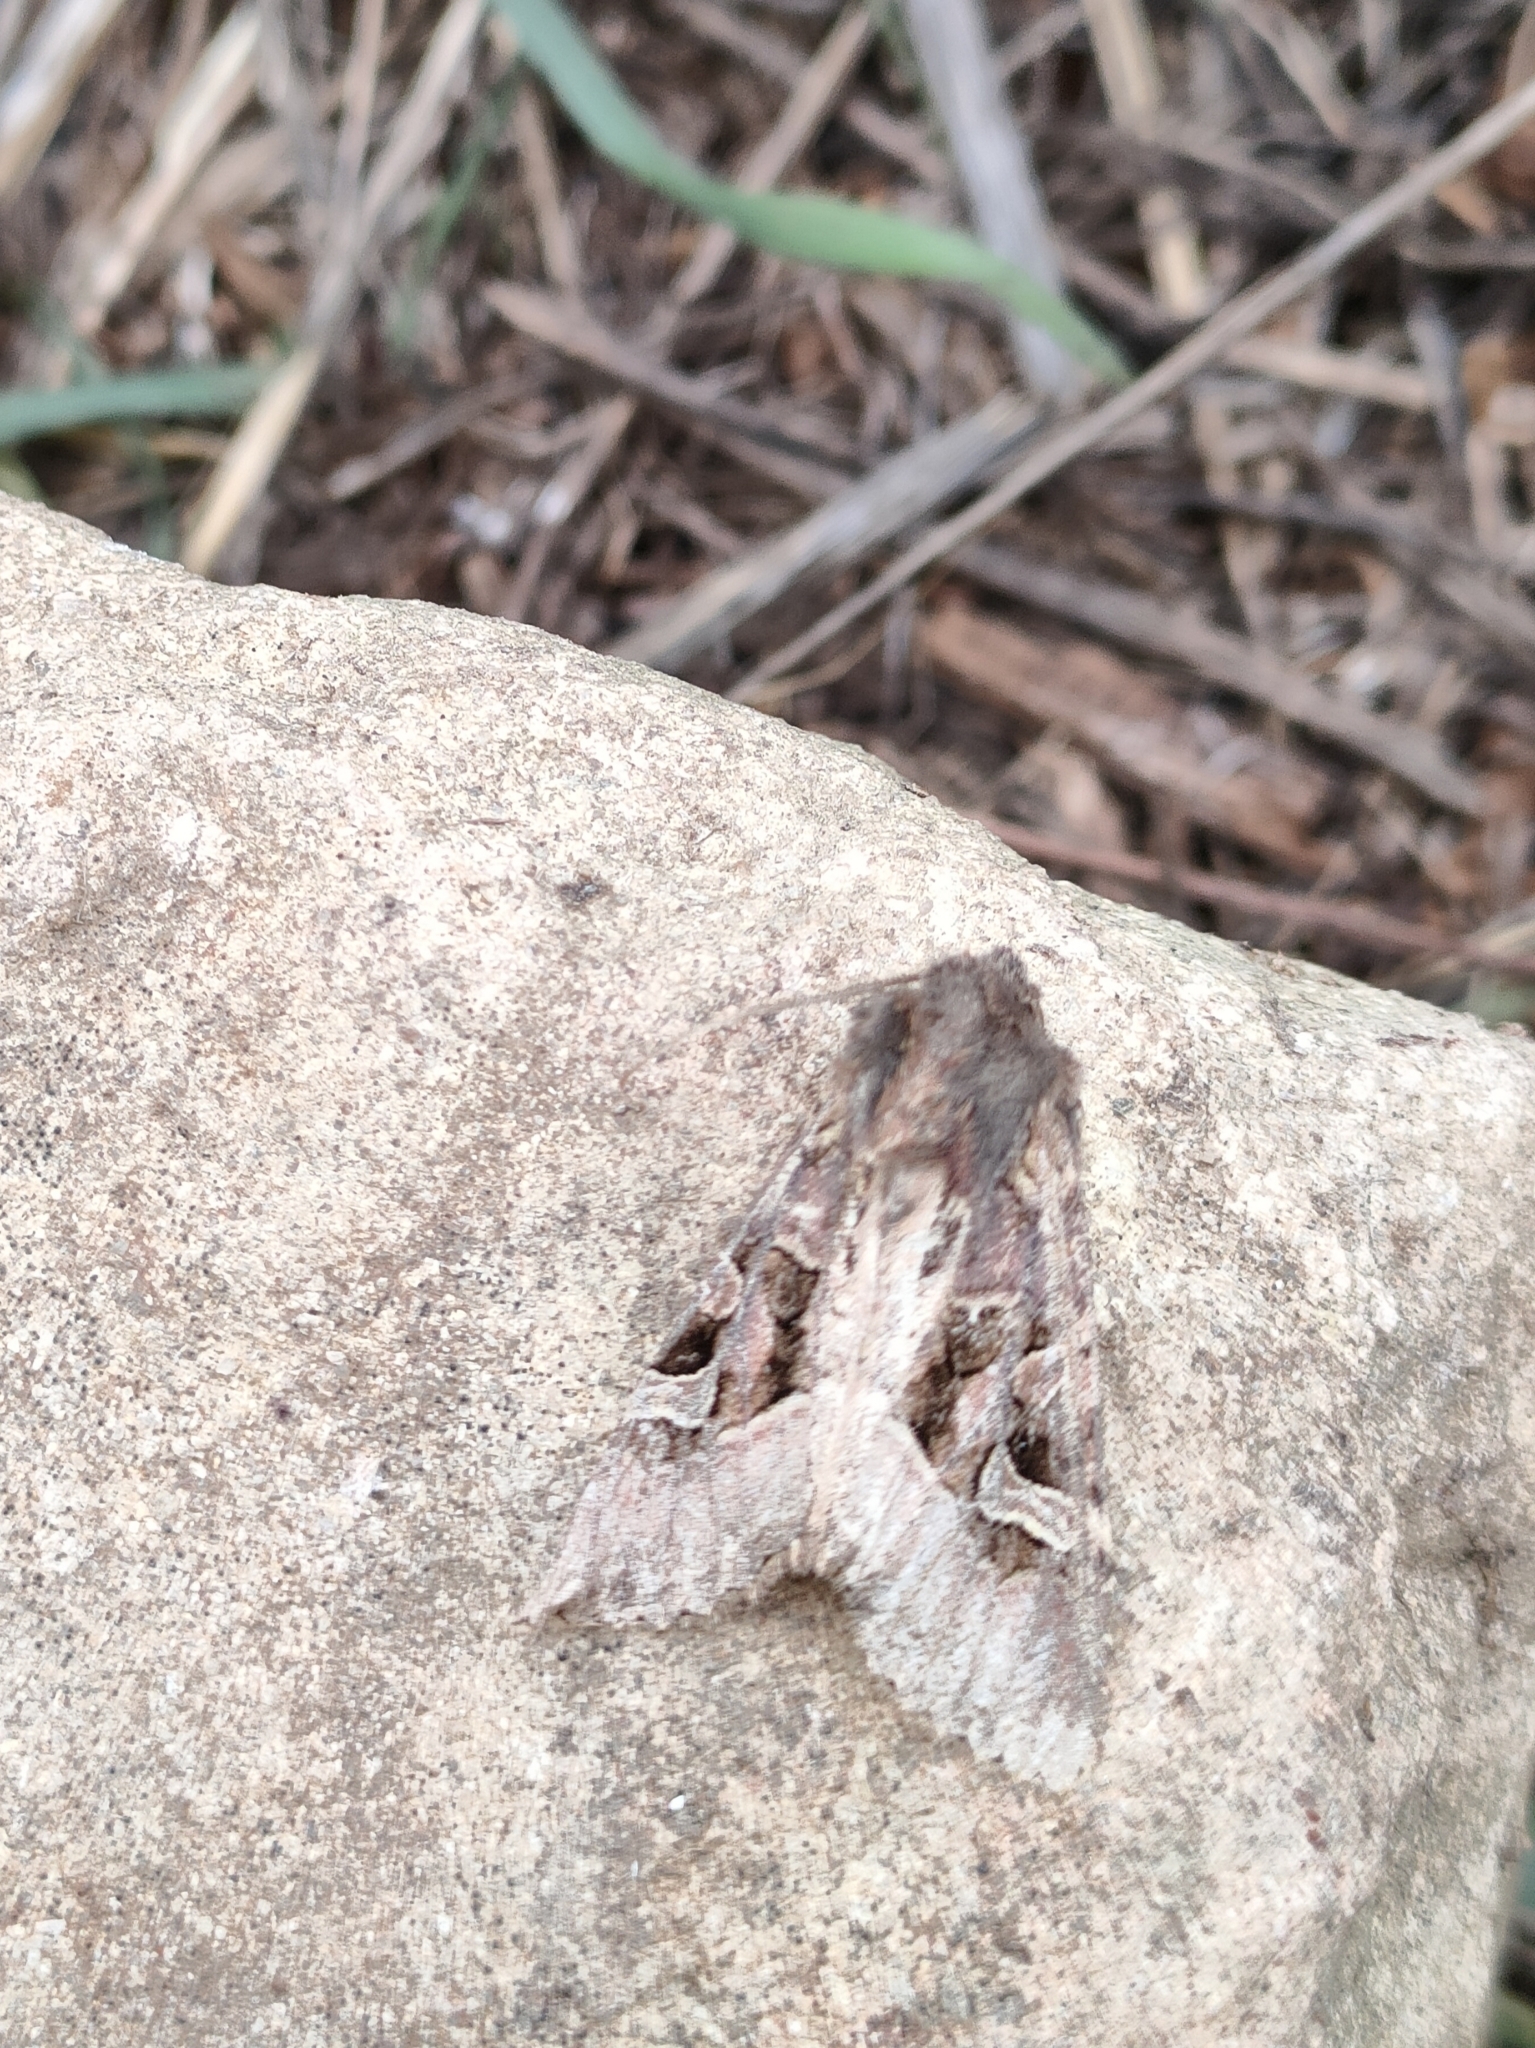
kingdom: Animalia
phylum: Arthropoda
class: Insecta
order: Lepidoptera
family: Noctuidae
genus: Trigonophora
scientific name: Trigonophora jodea
